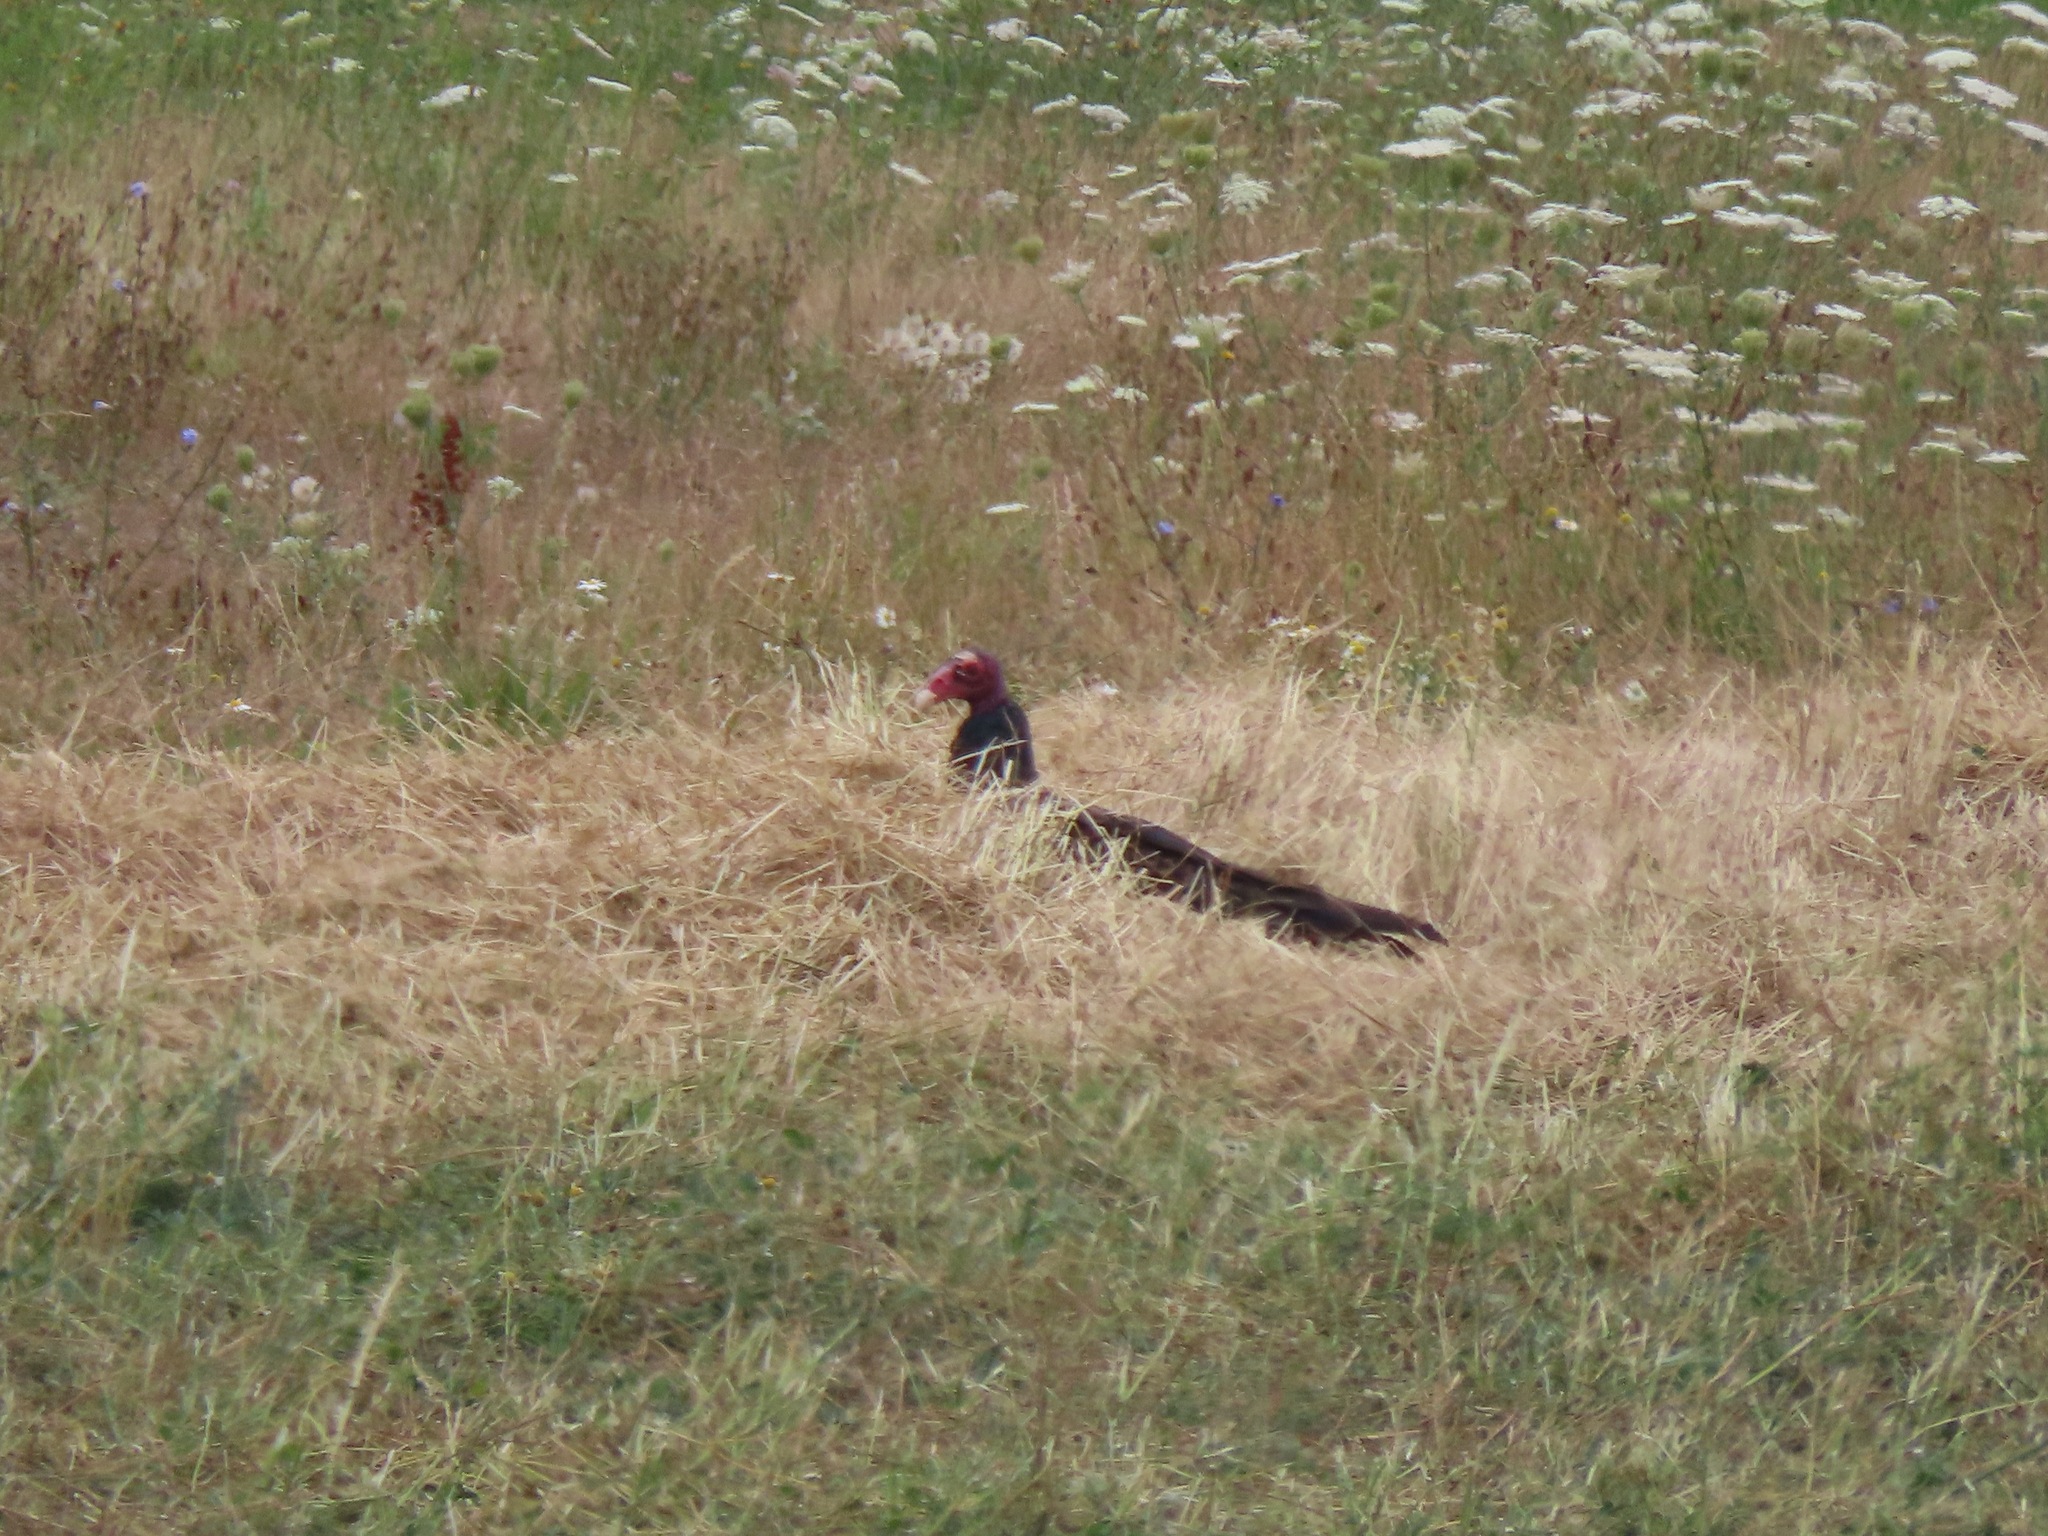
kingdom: Animalia
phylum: Chordata
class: Aves
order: Accipitriformes
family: Cathartidae
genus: Cathartes
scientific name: Cathartes aura
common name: Turkey vulture
